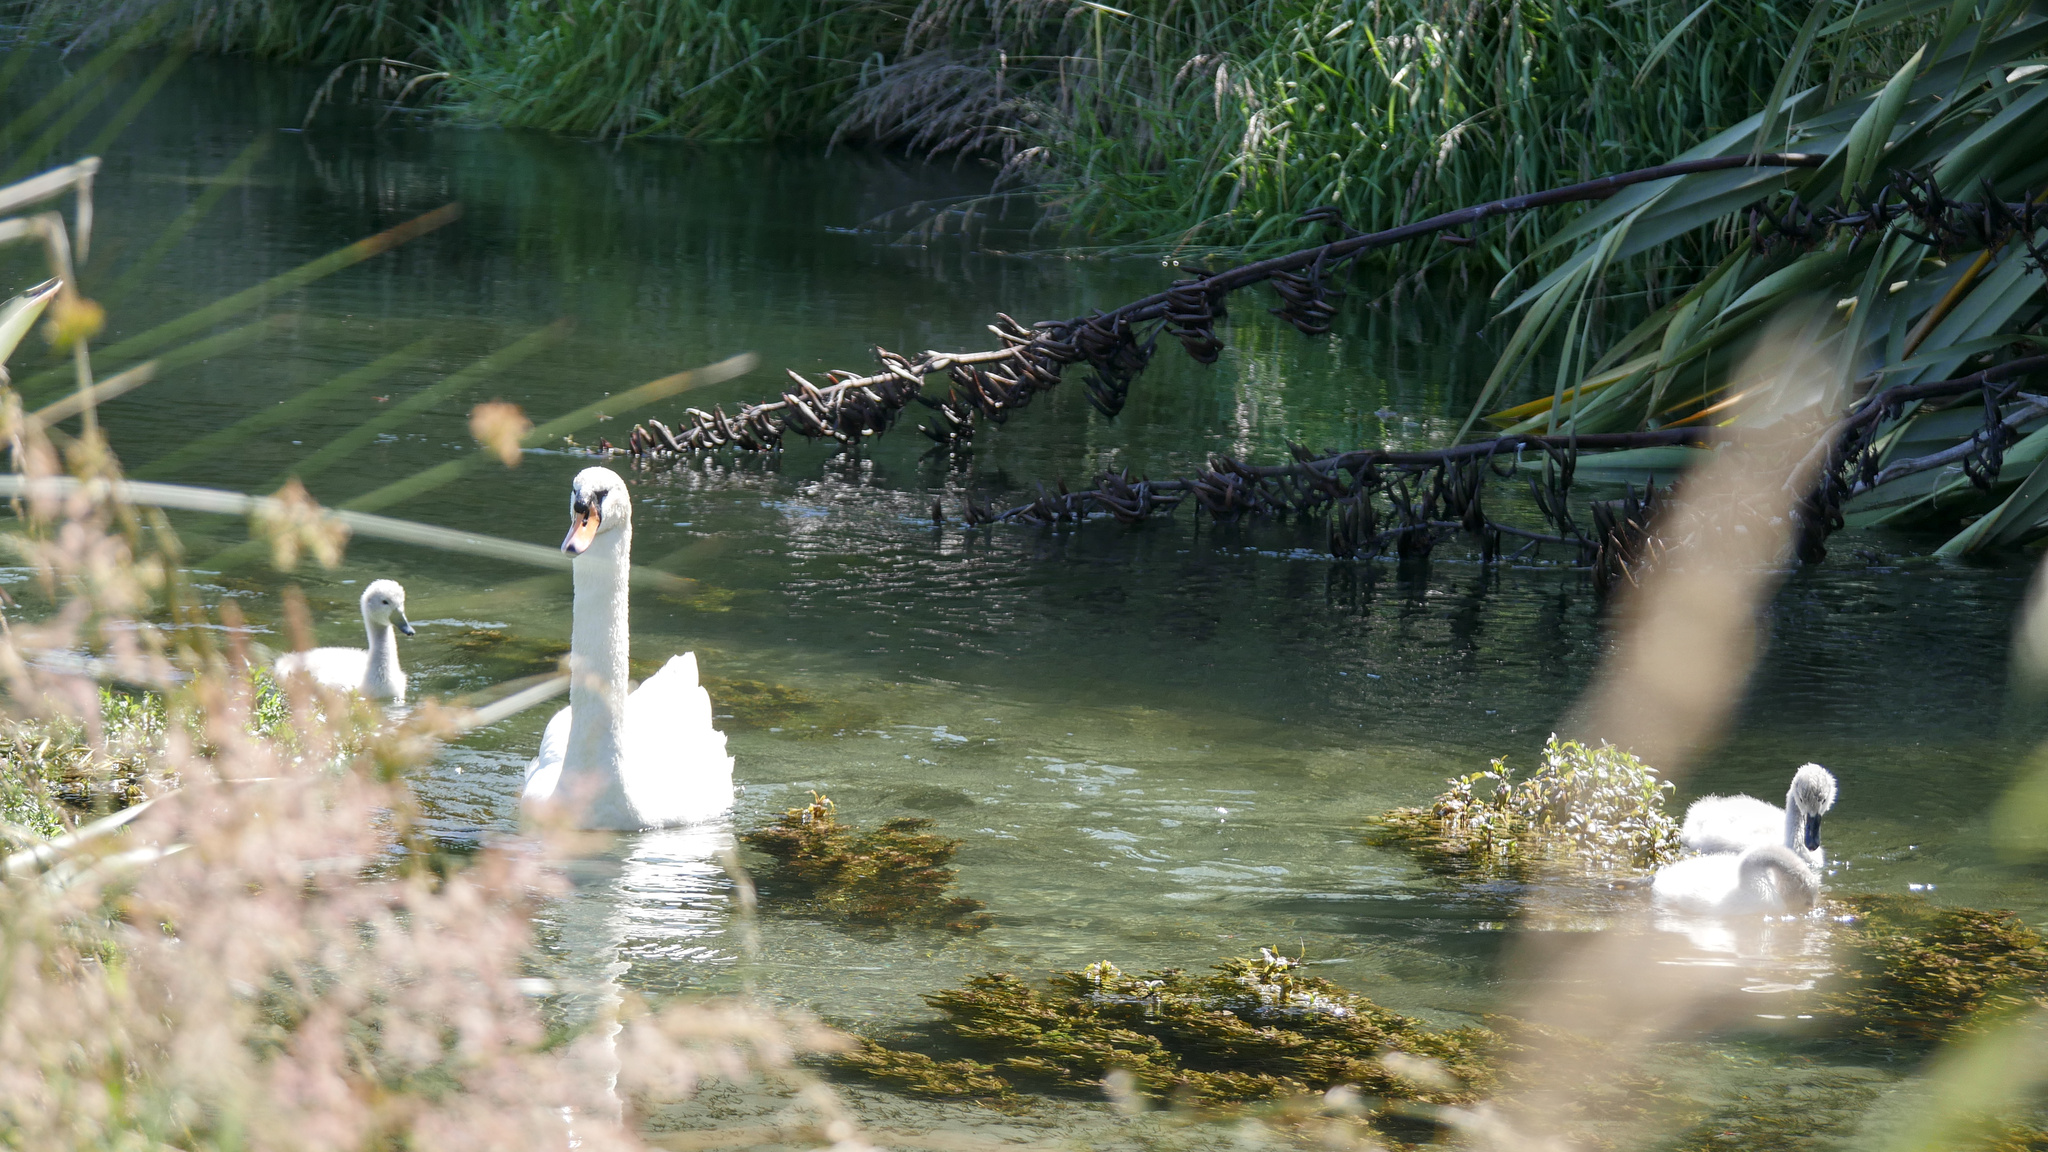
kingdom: Animalia
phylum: Chordata
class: Aves
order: Anseriformes
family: Anatidae
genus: Cygnus
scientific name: Cygnus olor
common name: Mute swan
